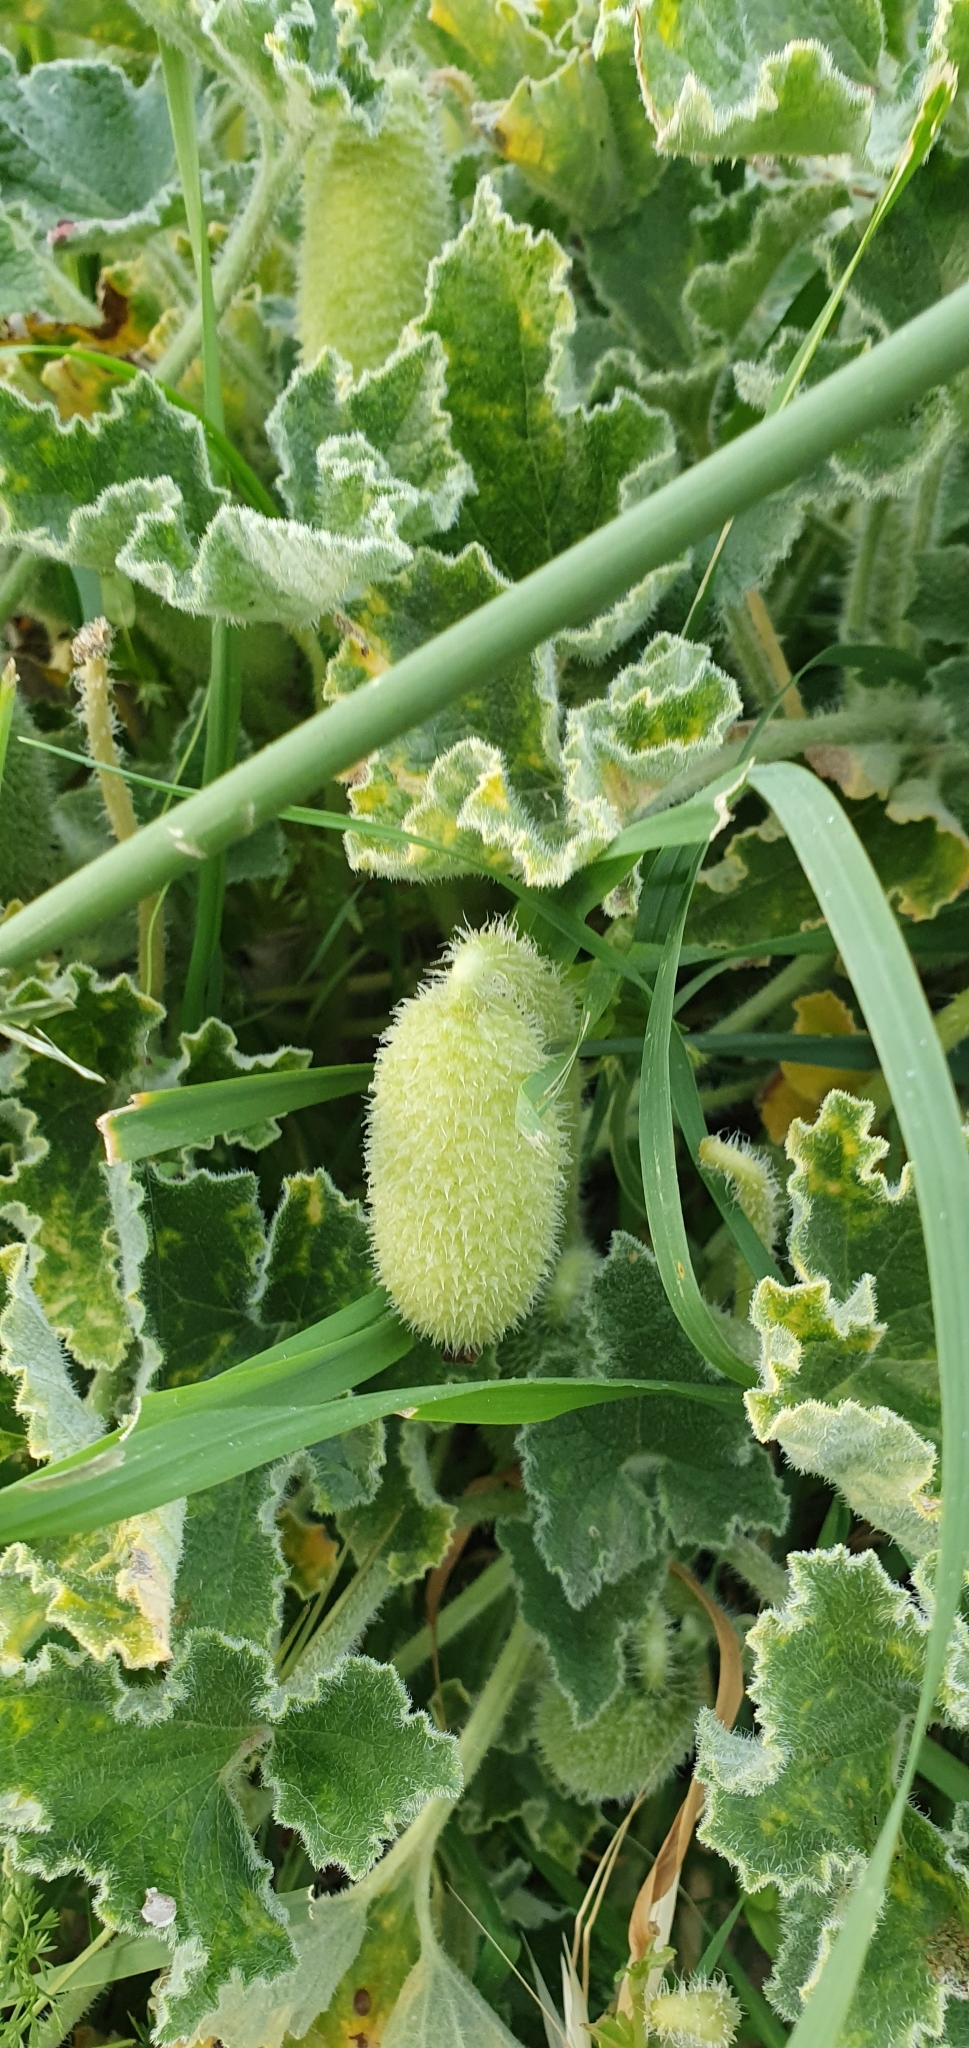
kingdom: Plantae
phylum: Tracheophyta
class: Magnoliopsida
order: Cucurbitales
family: Cucurbitaceae
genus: Ecballium
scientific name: Ecballium elaterium
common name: Squirting cucumber
